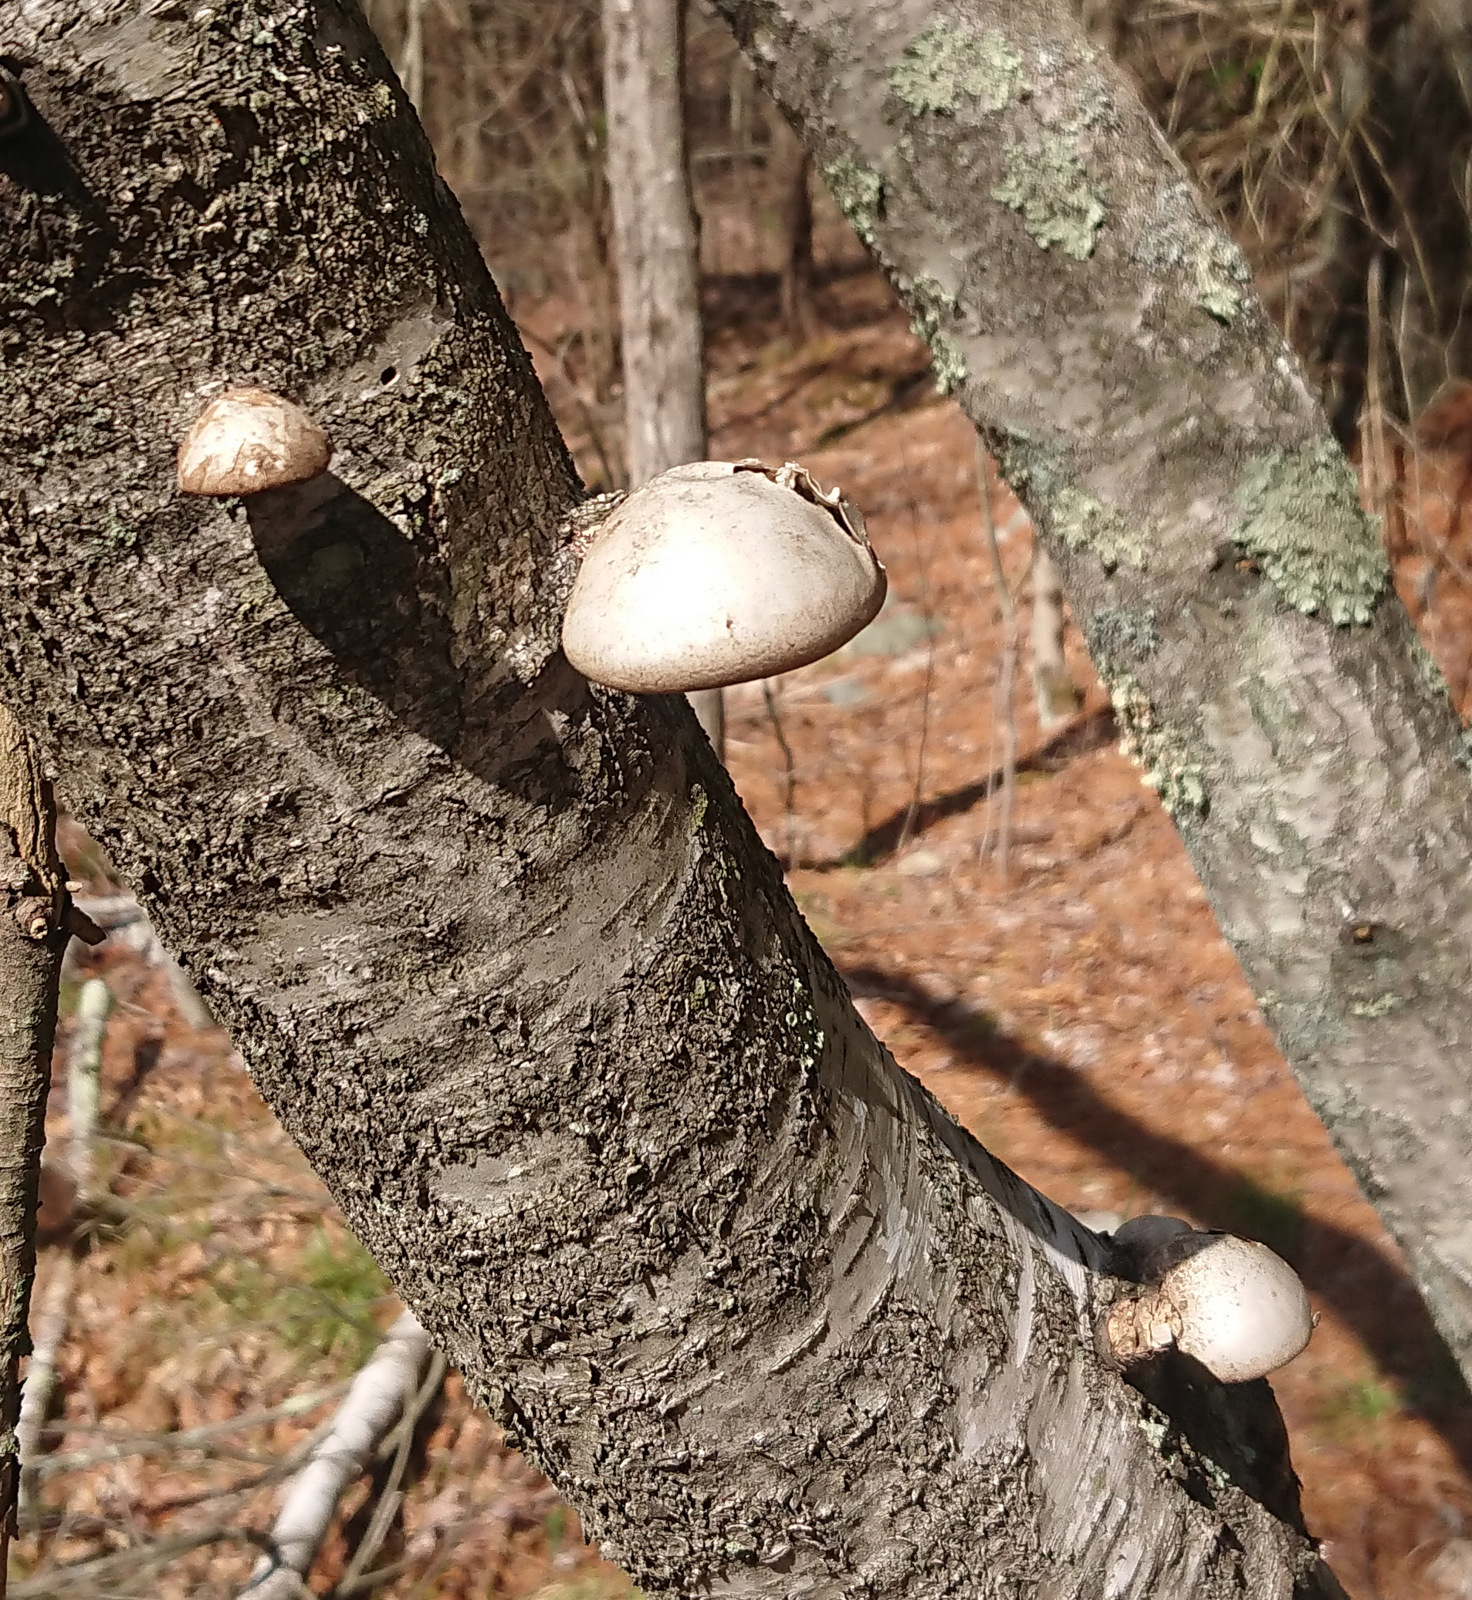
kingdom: Fungi
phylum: Basidiomycota
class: Agaricomycetes
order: Polyporales
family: Fomitopsidaceae
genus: Fomitopsis
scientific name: Fomitopsis betulina
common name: Birch polypore
